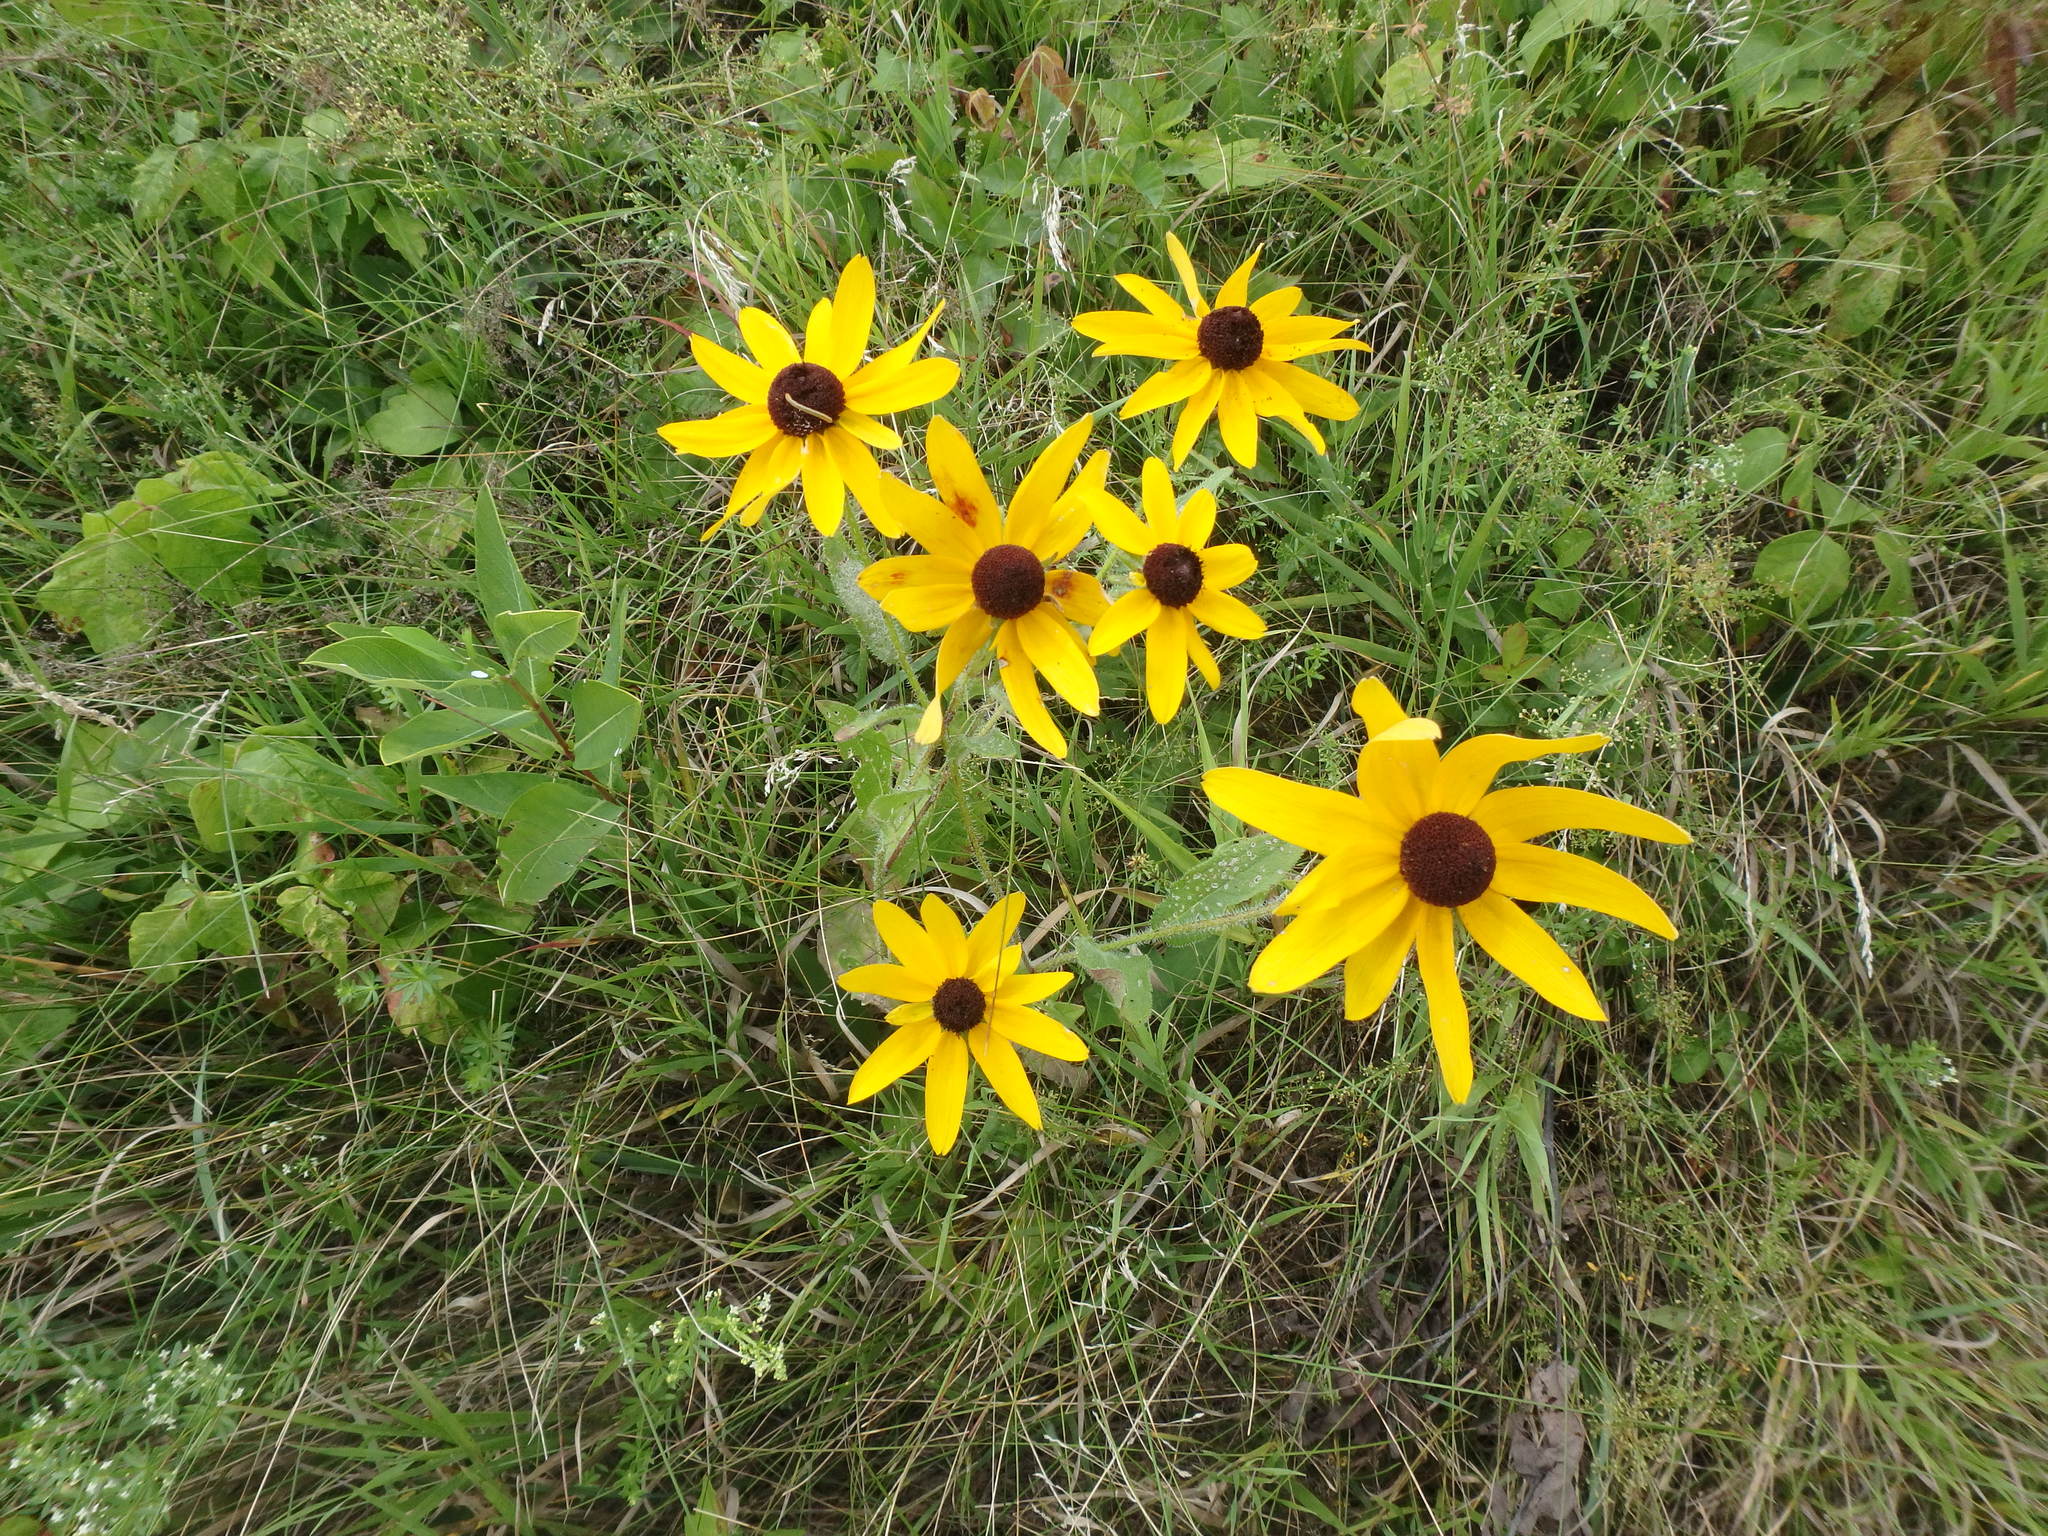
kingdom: Plantae
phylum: Tracheophyta
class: Magnoliopsida
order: Asterales
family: Asteraceae
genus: Rudbeckia
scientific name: Rudbeckia hirta
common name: Black-eyed-susan
